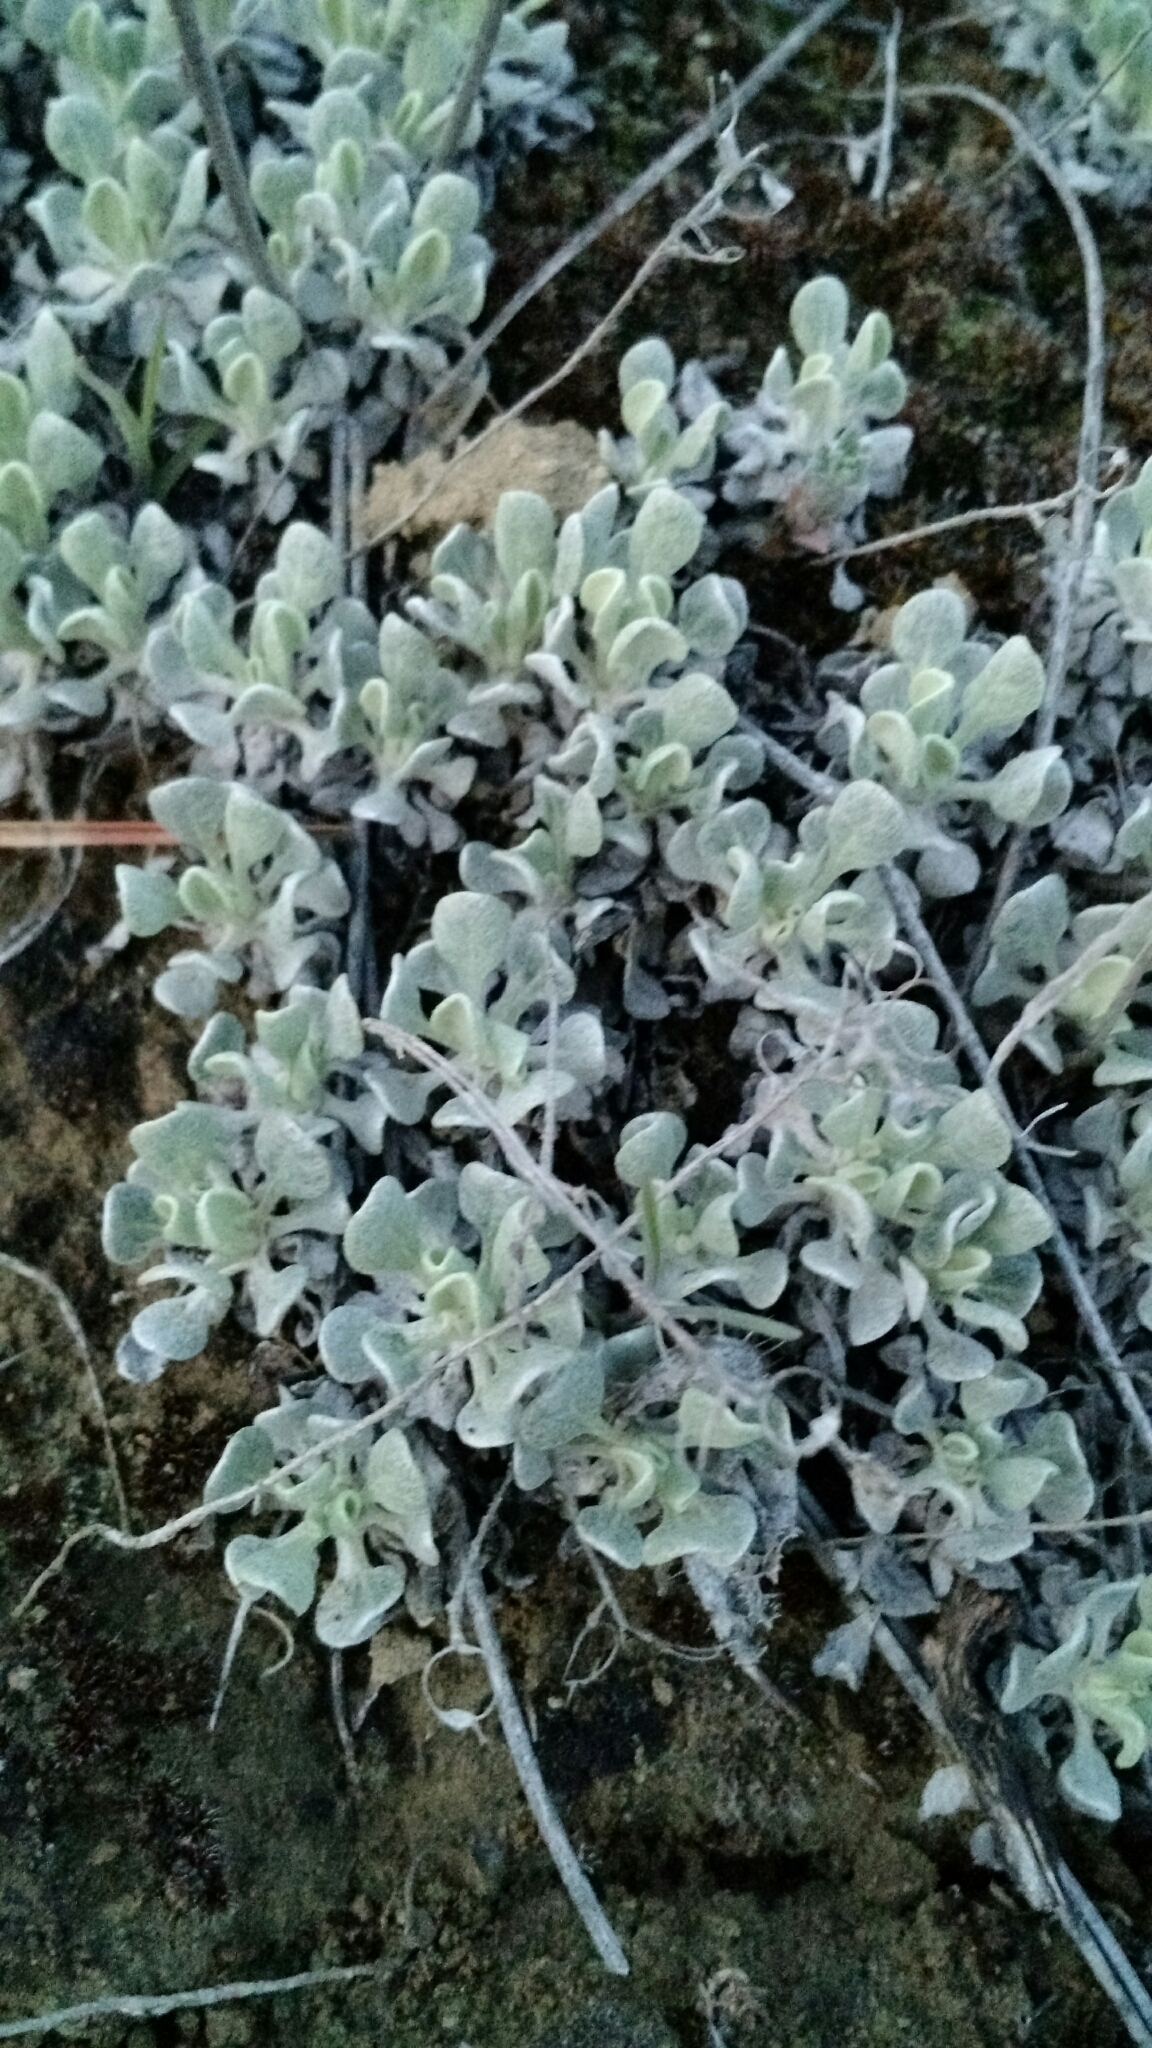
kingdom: Plantae
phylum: Tracheophyta
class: Magnoliopsida
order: Caryophyllales
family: Polygonaceae
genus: Eriogonum
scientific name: Eriogonum ovalifolium
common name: Cushion buckwheat
